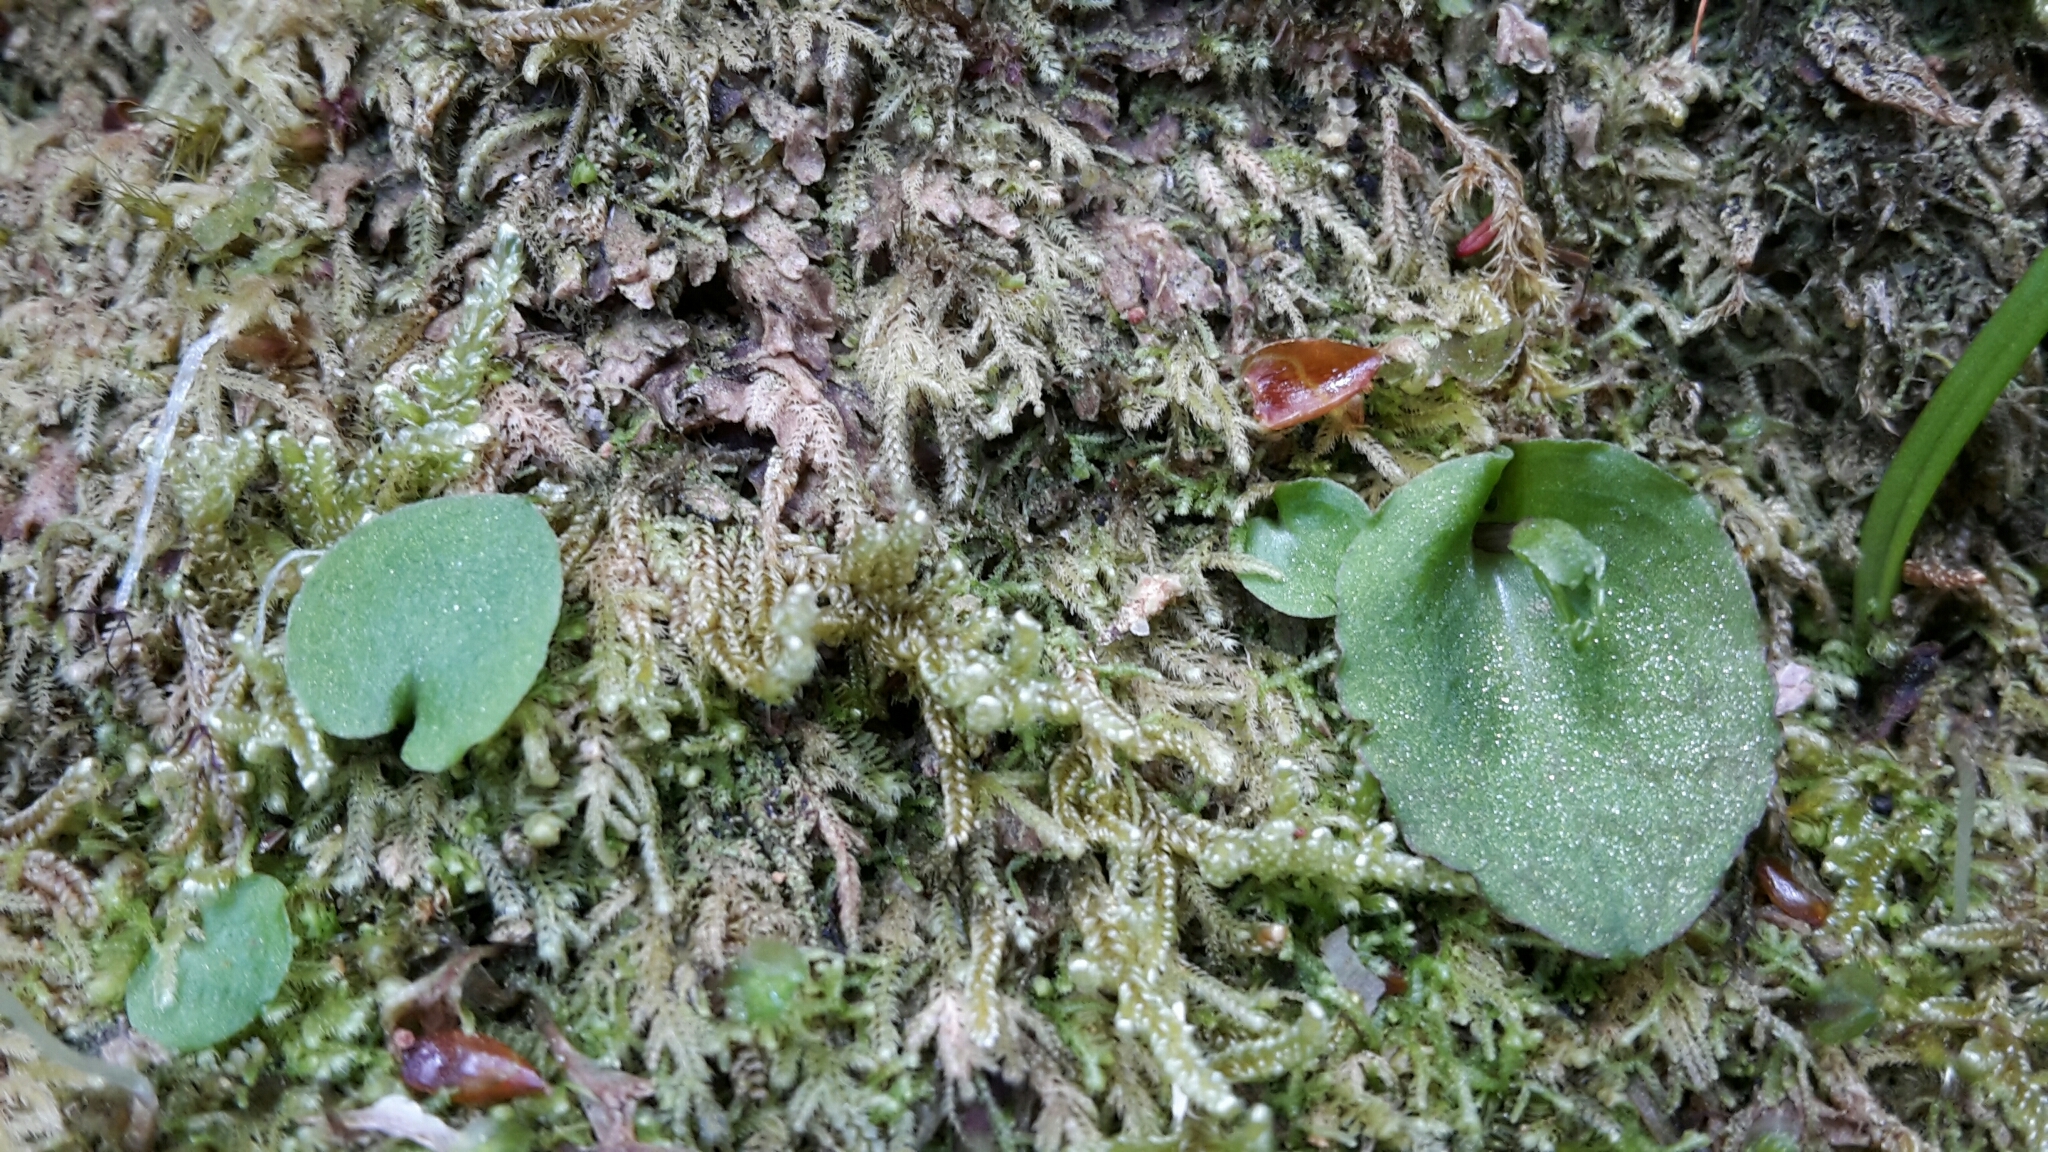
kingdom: Plantae
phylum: Tracheophyta
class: Liliopsida
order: Asparagales
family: Orchidaceae
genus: Corybas
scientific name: Corybas oblongus
